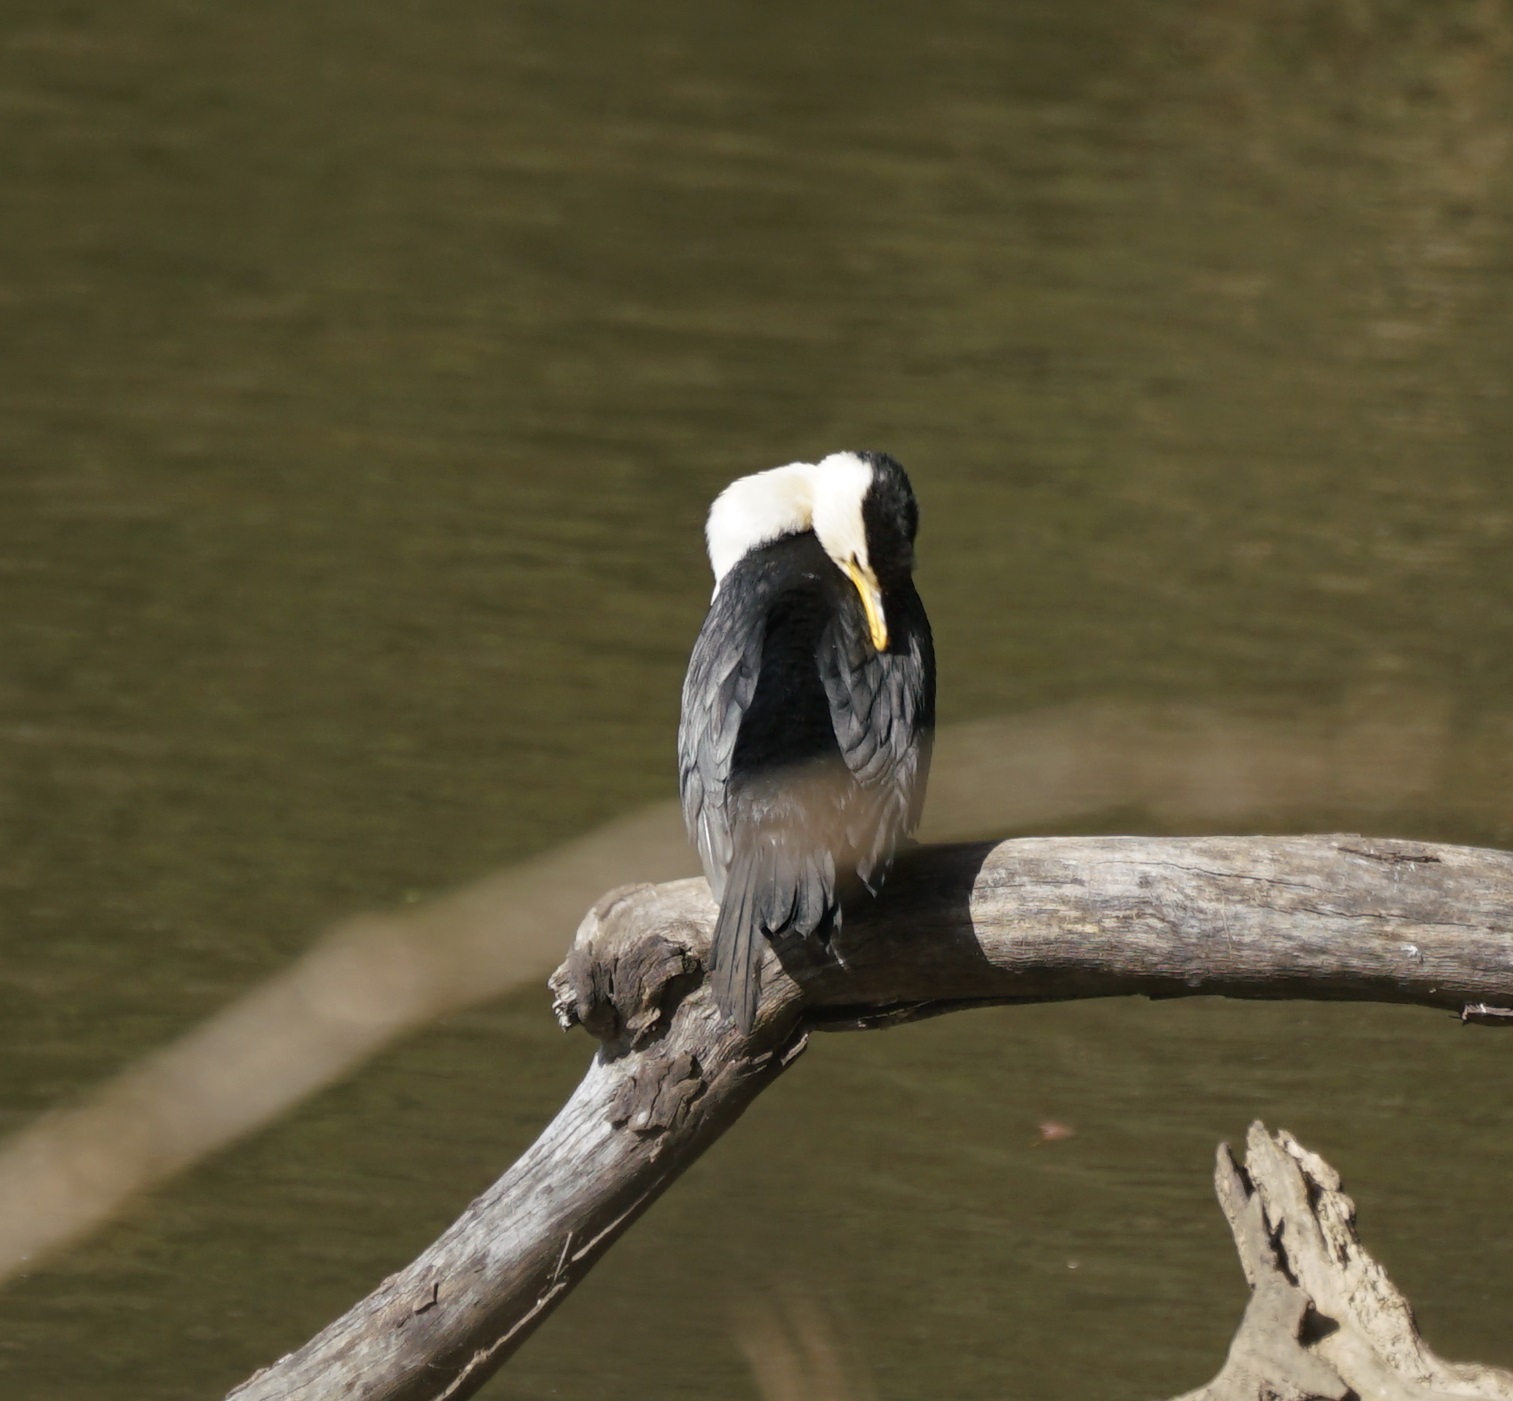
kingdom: Animalia
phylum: Chordata
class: Aves
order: Suliformes
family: Phalacrocoracidae
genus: Microcarbo
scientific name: Microcarbo melanoleucos
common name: Little pied cormorant
